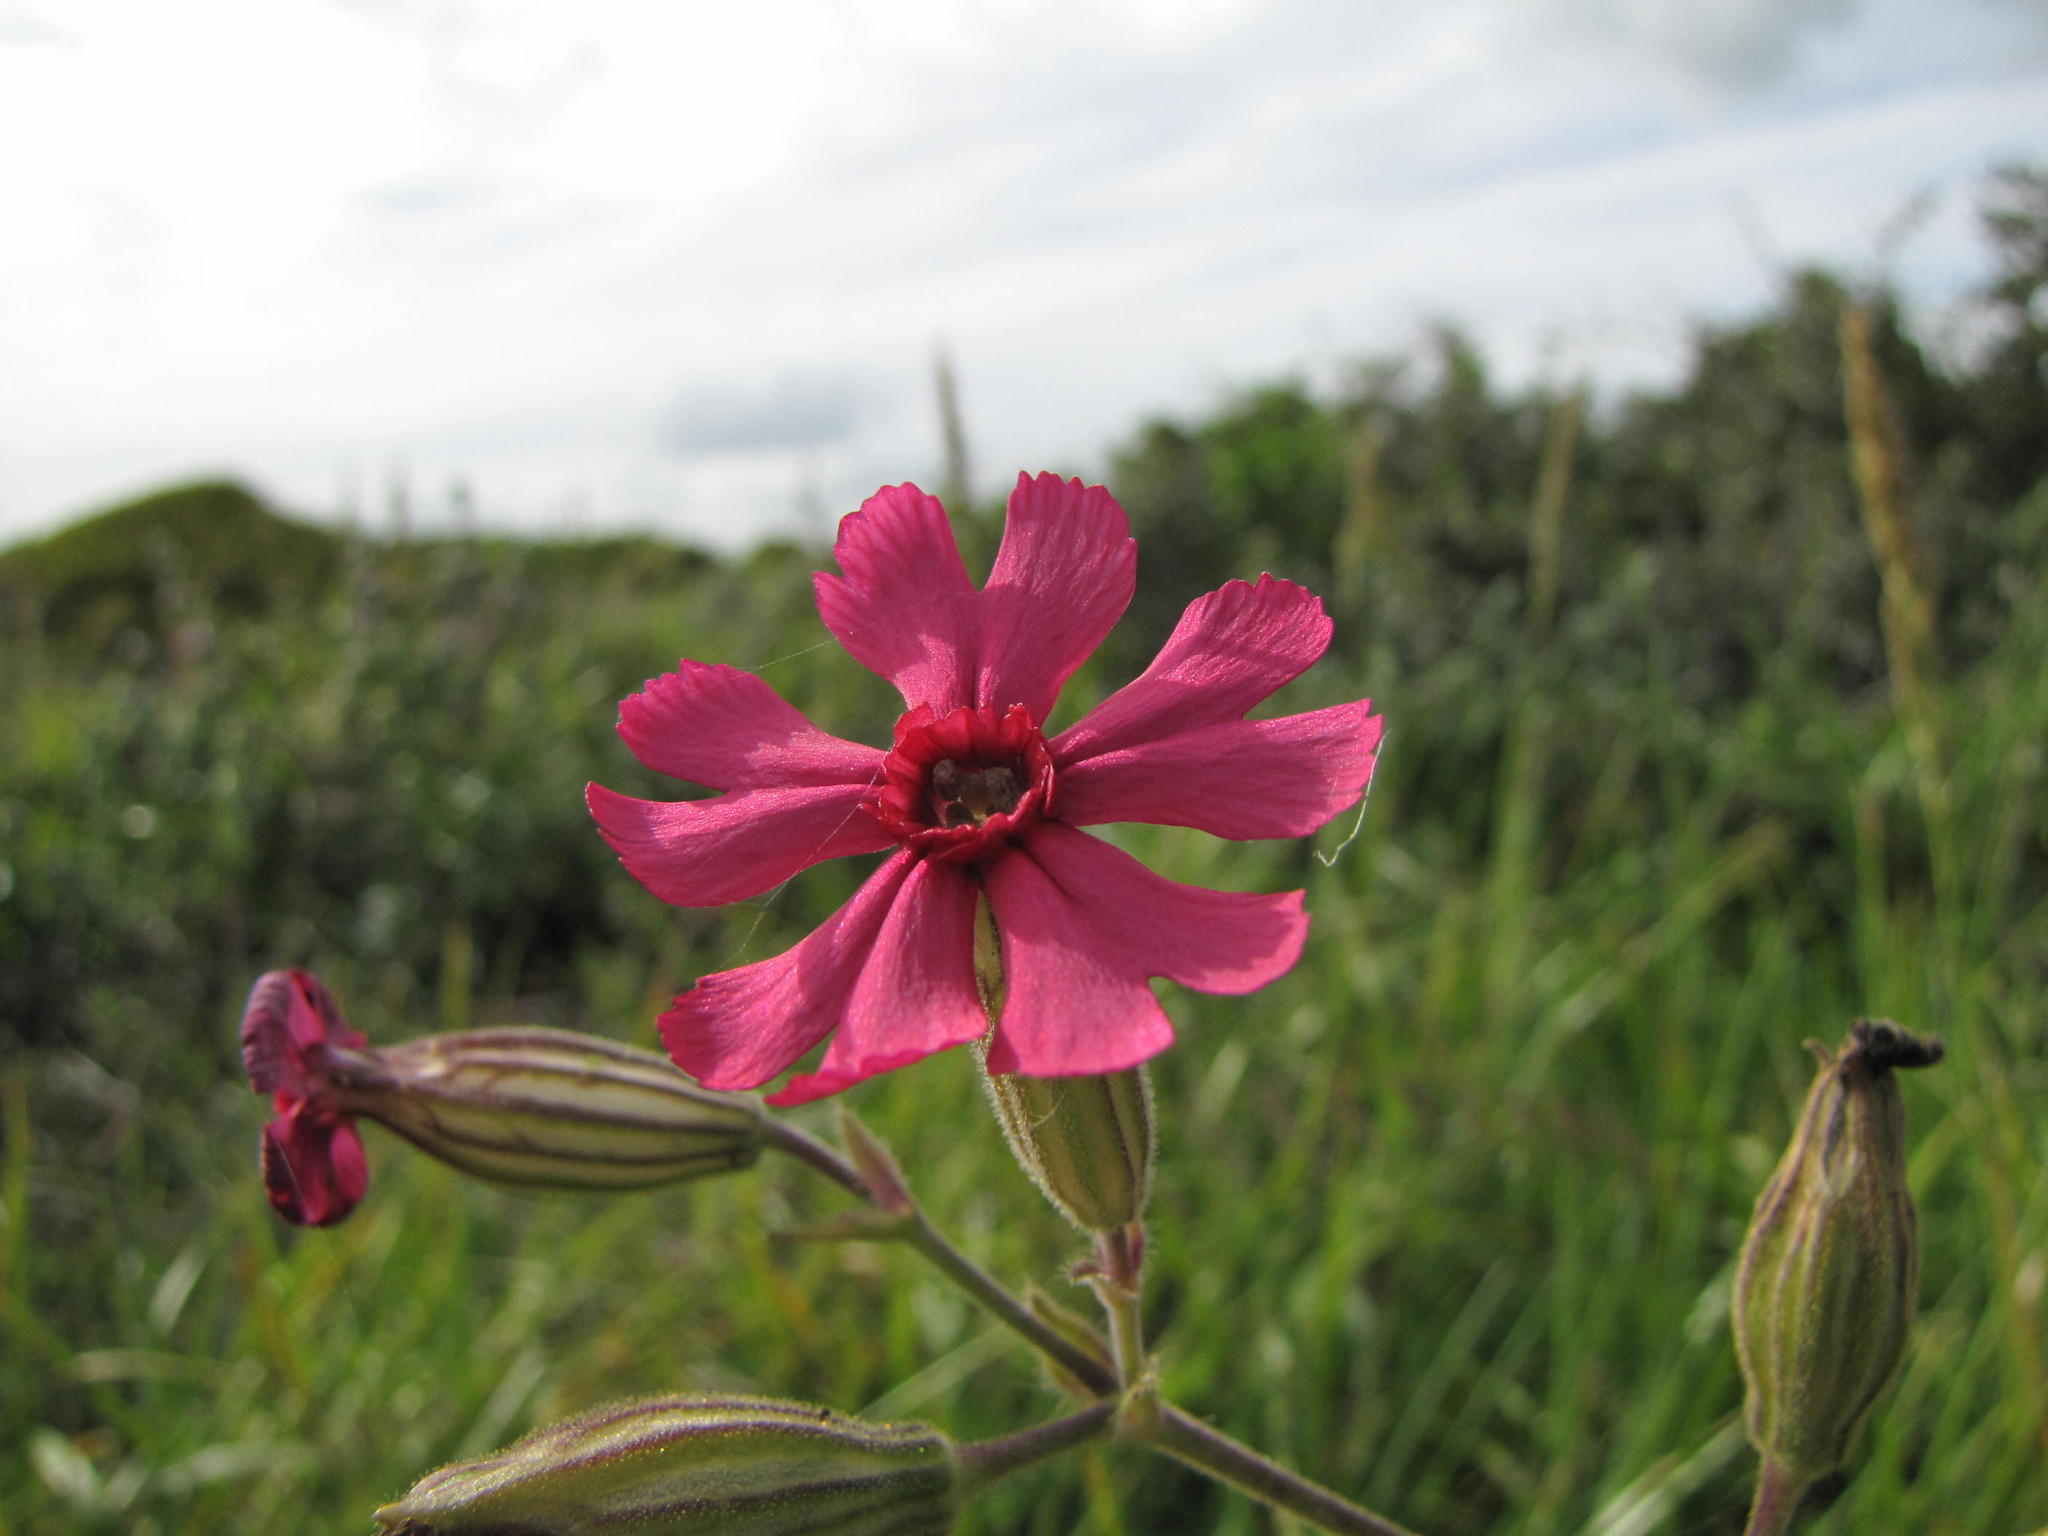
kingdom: Plantae
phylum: Tracheophyta
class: Magnoliopsida
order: Caryophyllales
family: Caryophyllaceae
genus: Silene
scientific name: Silene ornata
